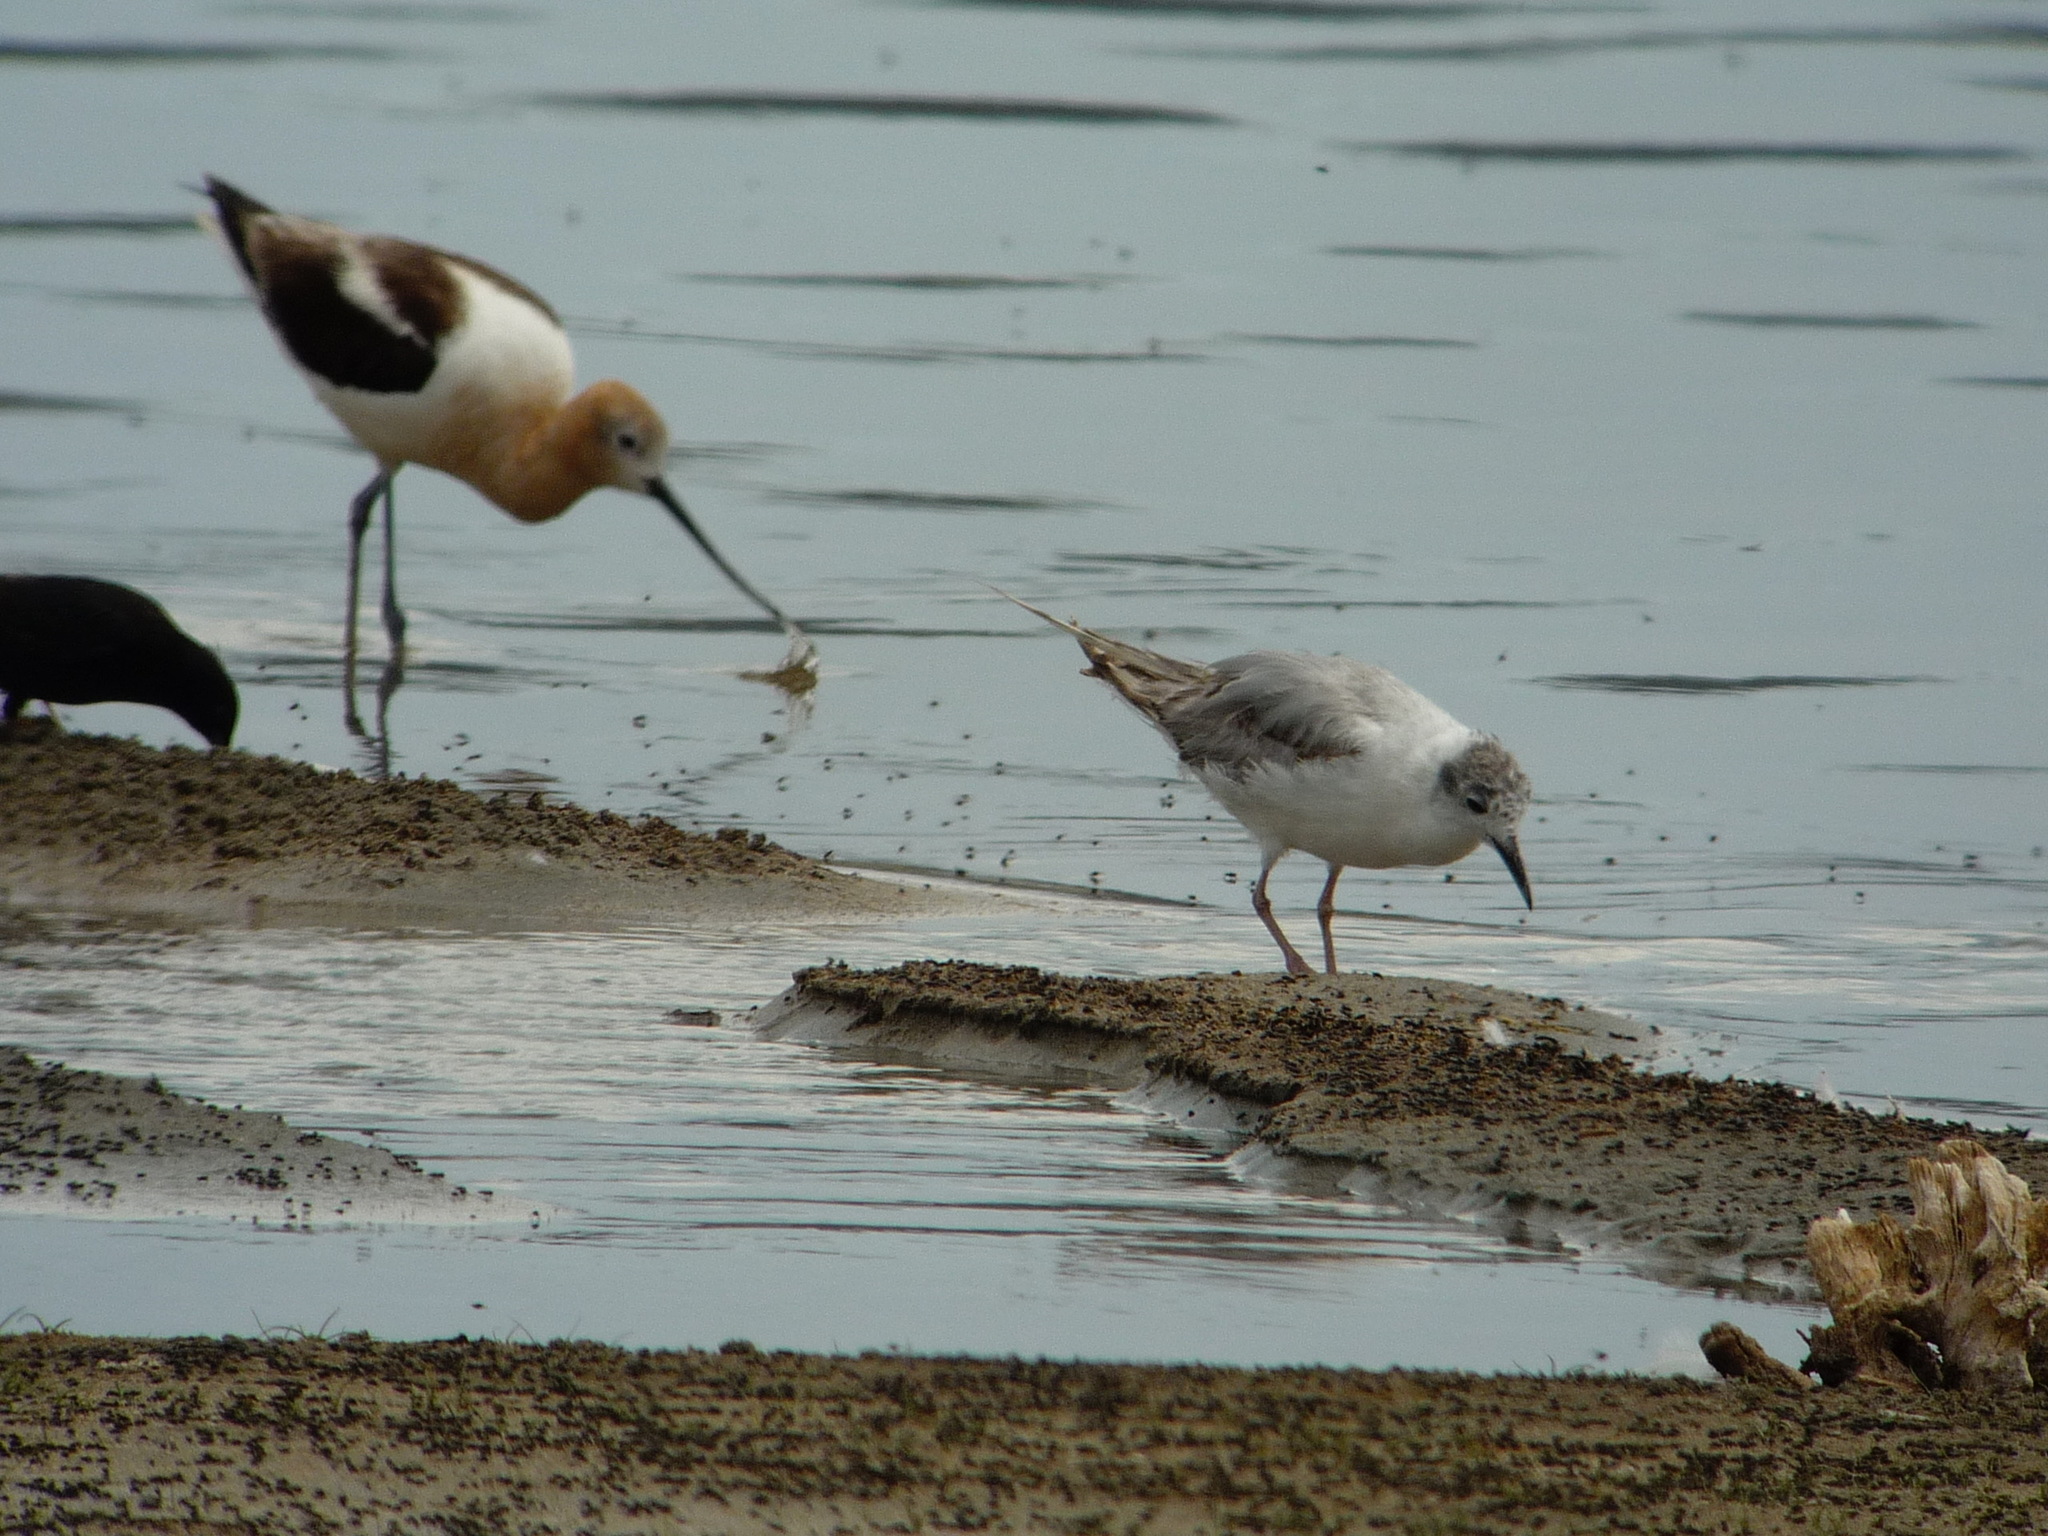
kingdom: Animalia
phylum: Chordata
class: Aves
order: Charadriiformes
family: Laridae
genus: Chroicocephalus
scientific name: Chroicocephalus philadelphia
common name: Bonaparte's gull
